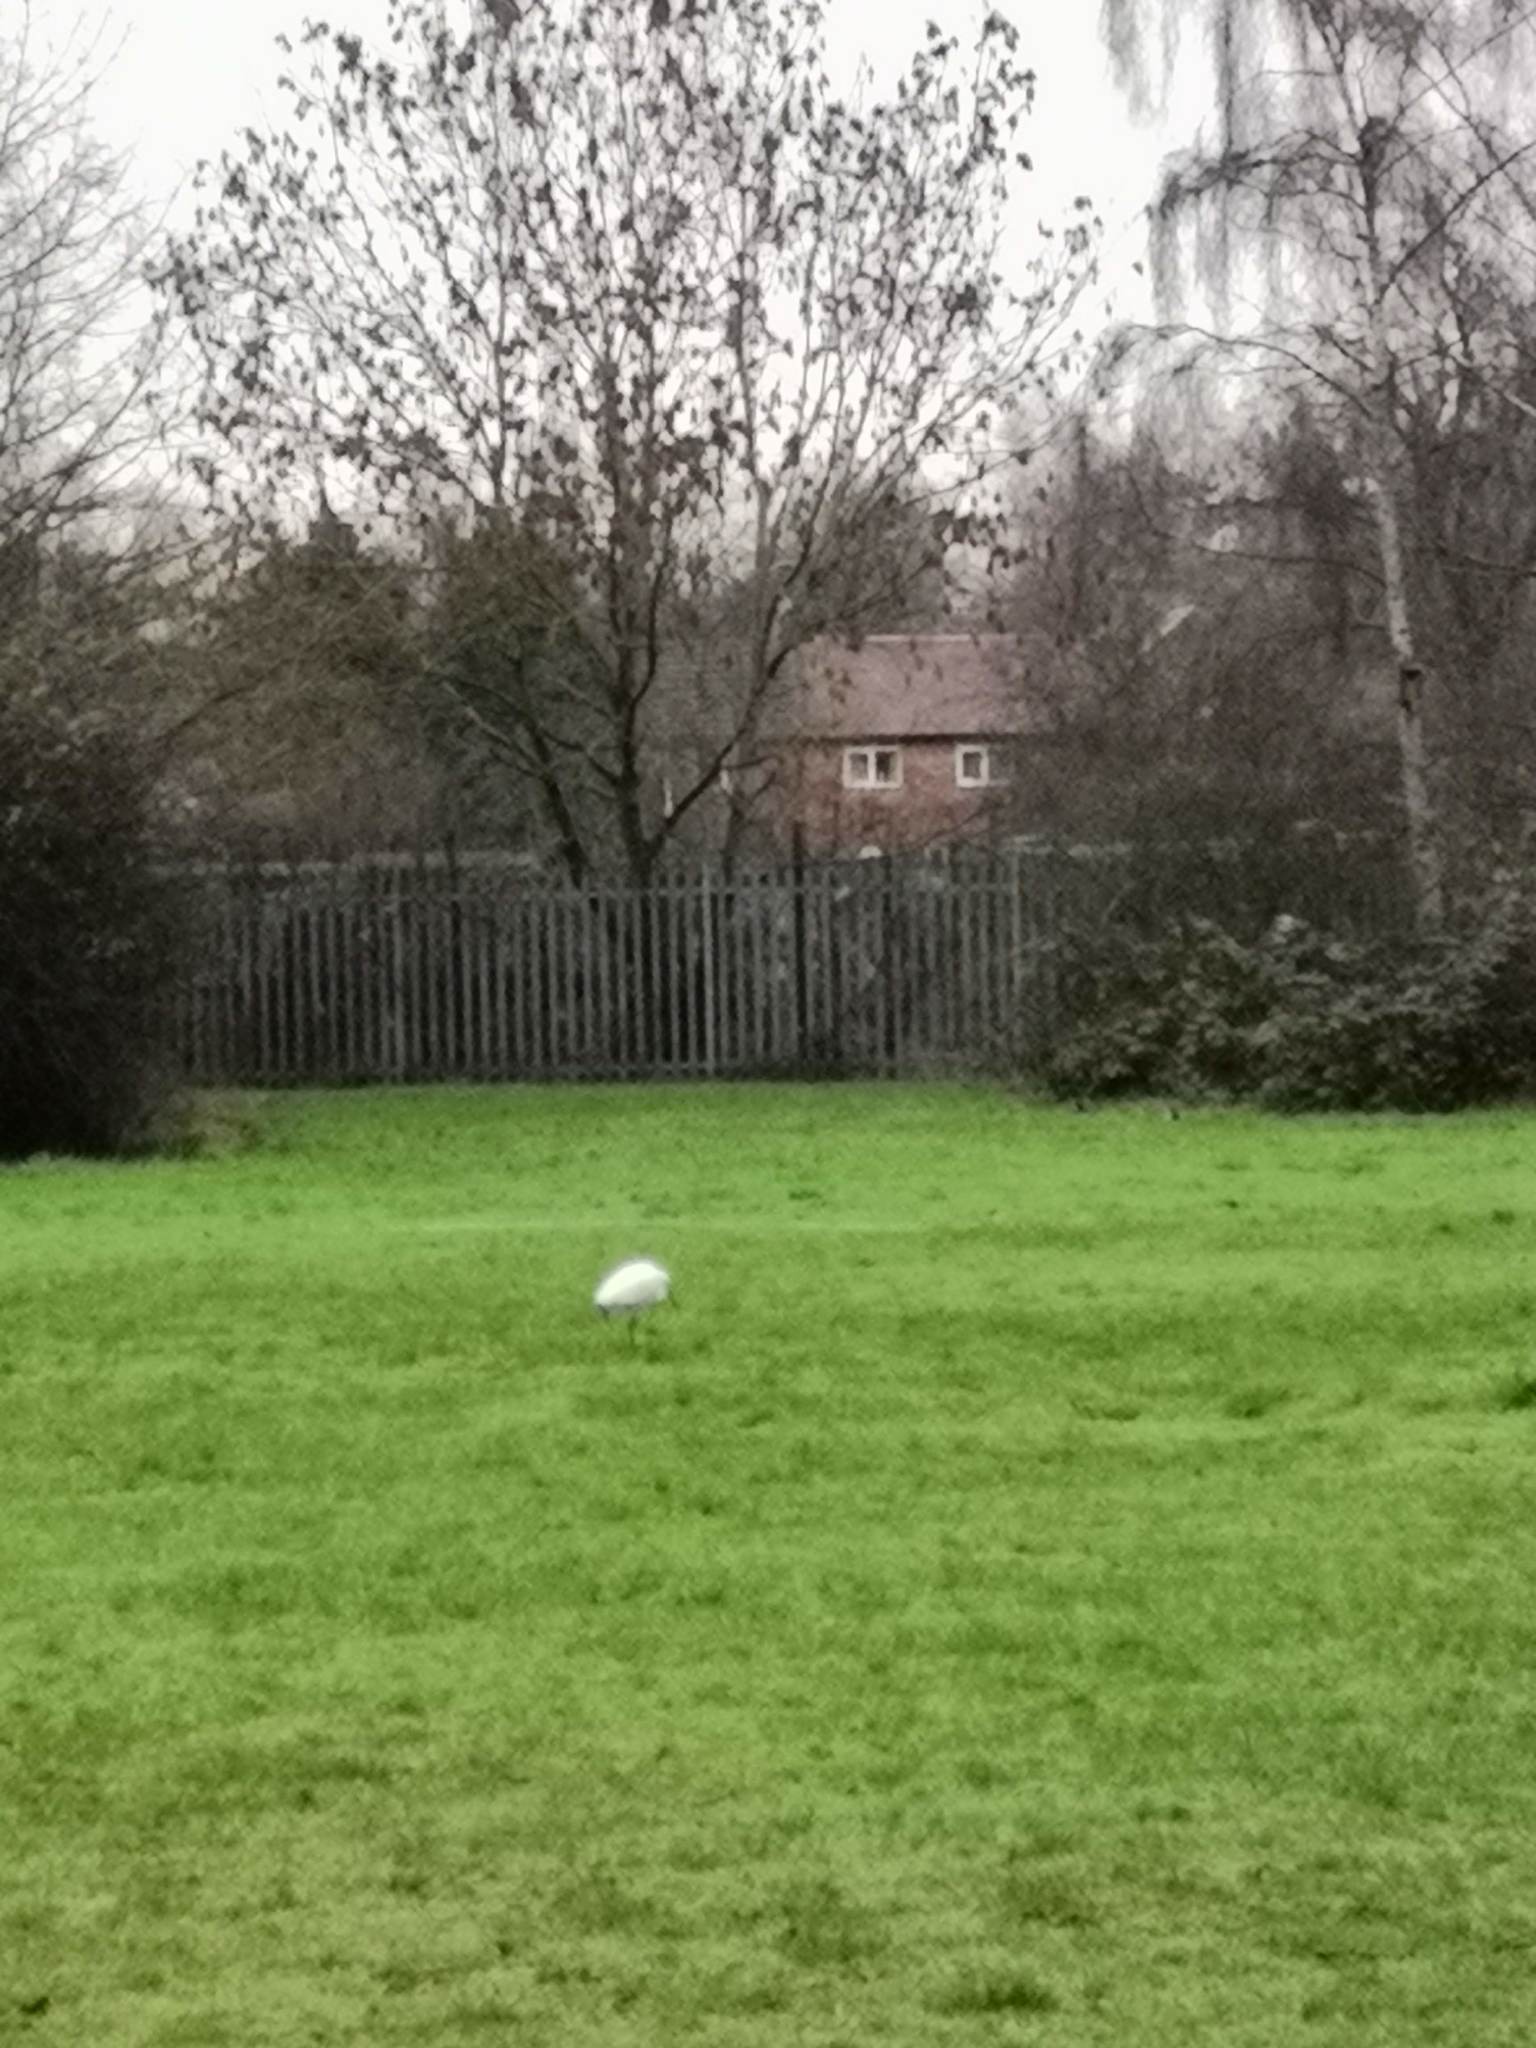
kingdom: Animalia
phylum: Chordata
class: Aves
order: Pelecaniformes
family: Ardeidae
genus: Egretta
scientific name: Egretta garzetta
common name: Little egret
